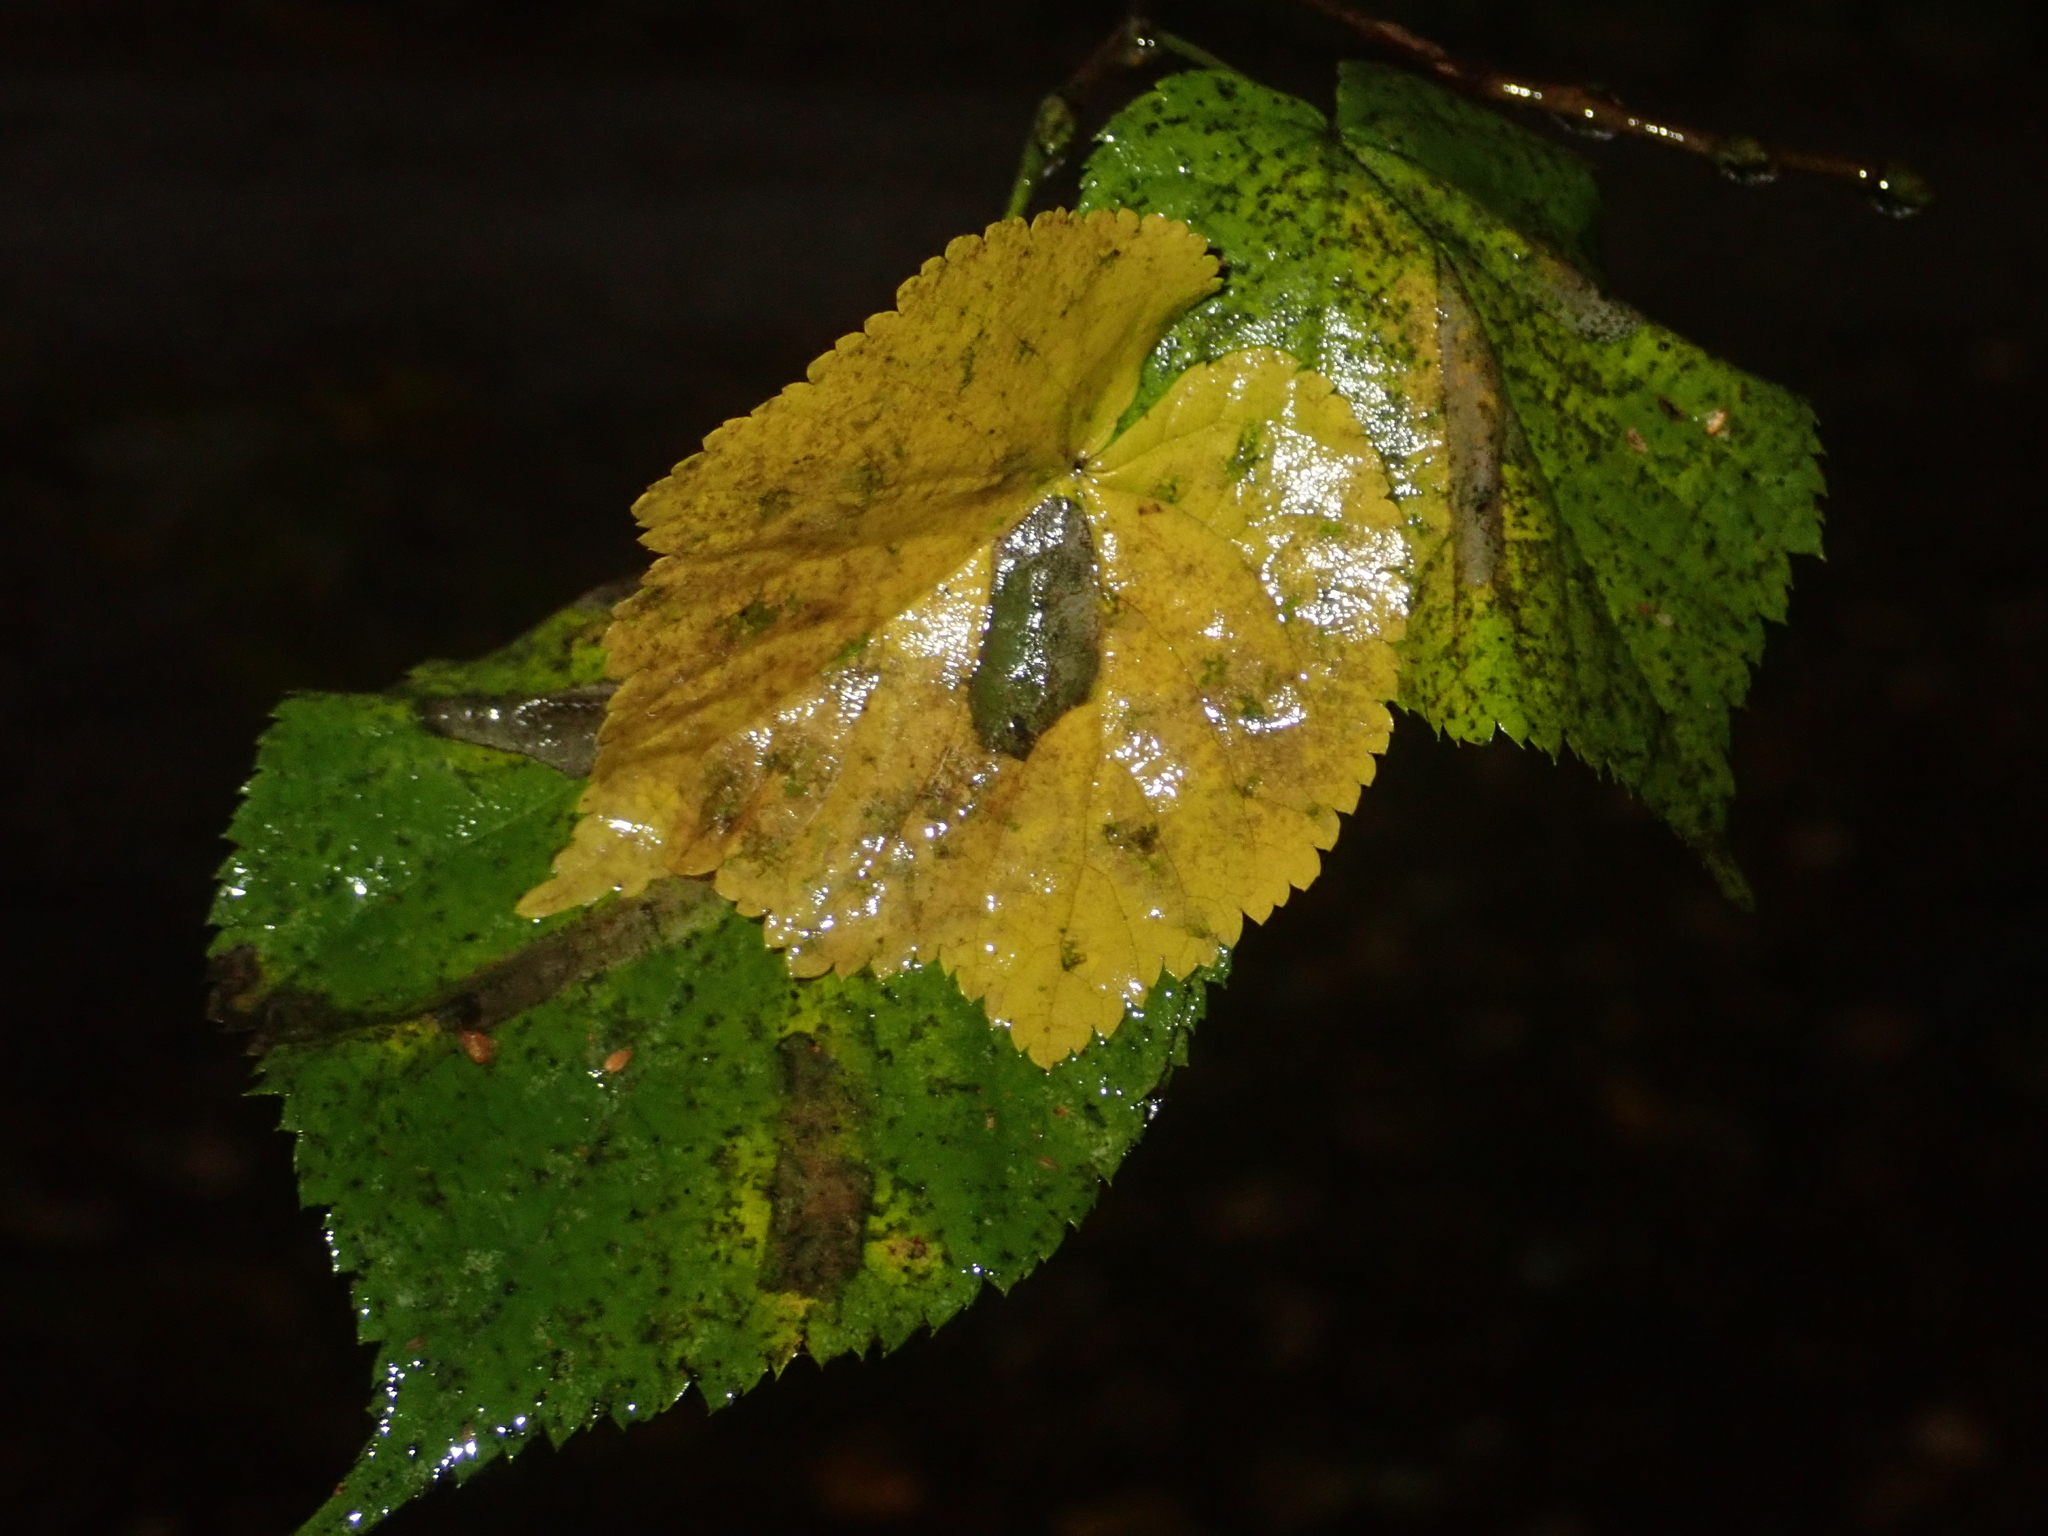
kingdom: Plantae
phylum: Tracheophyta
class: Magnoliopsida
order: Malvales
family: Malvaceae
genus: Tilia
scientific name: Tilia cordata
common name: Small-leaved lime
